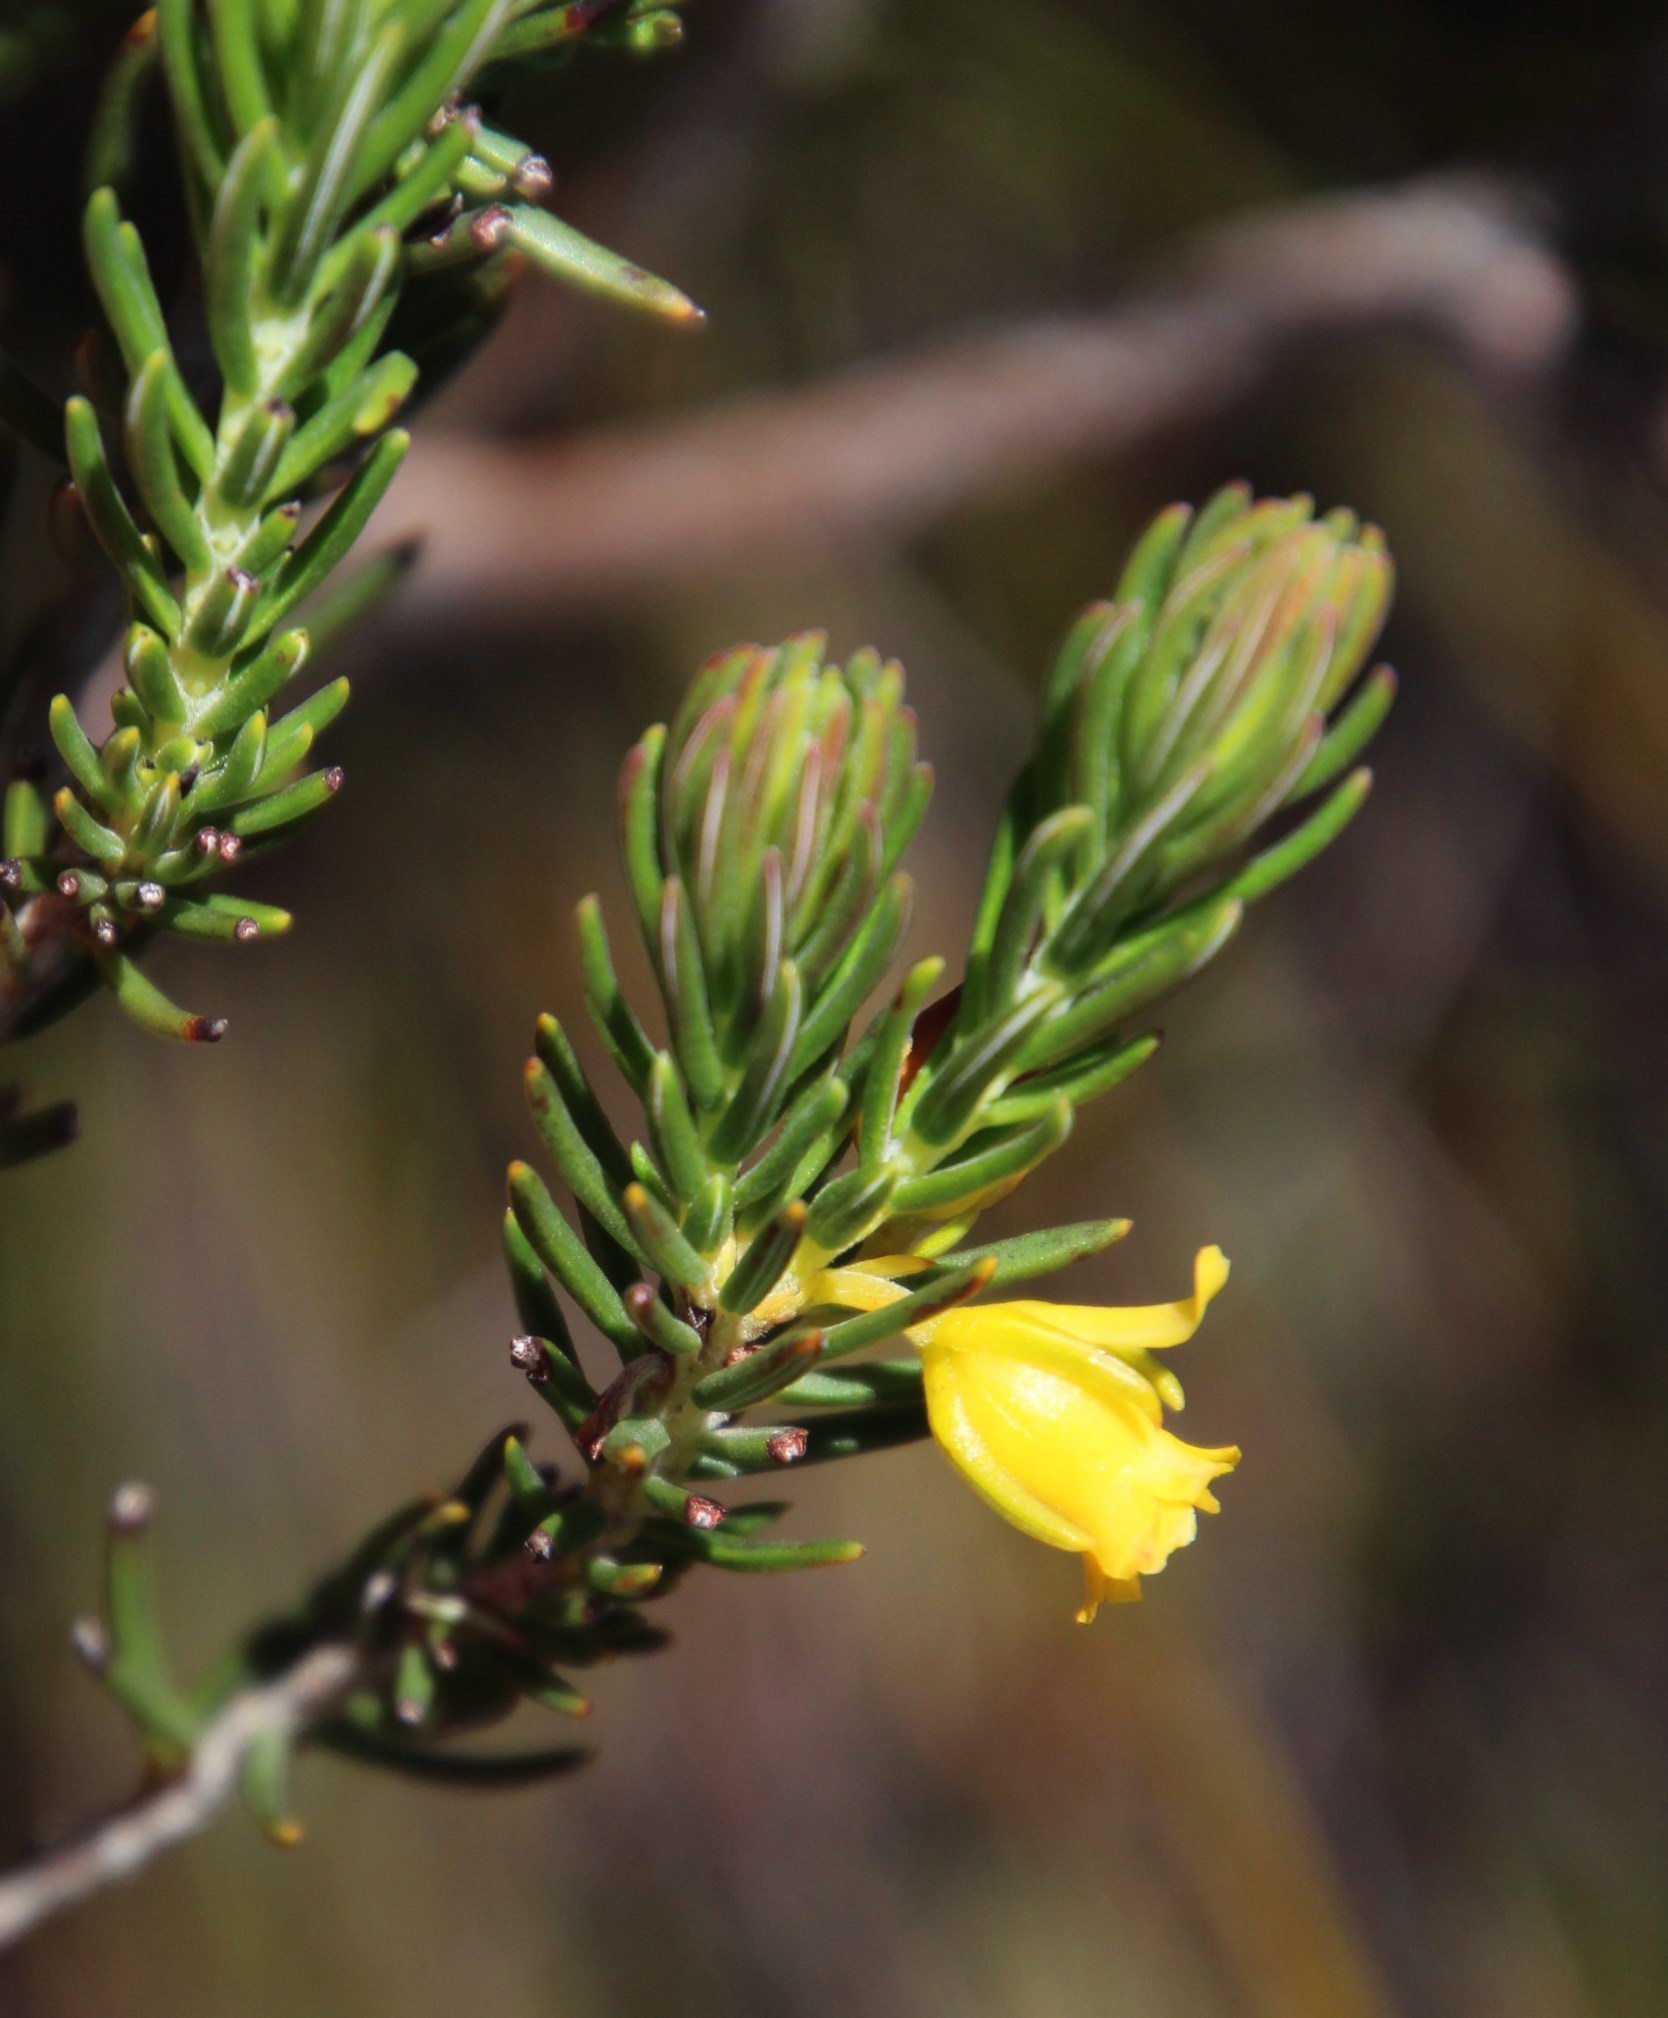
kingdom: Plantae
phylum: Tracheophyta
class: Magnoliopsida
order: Ericales
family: Ericaceae
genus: Erica
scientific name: Erica parilis
